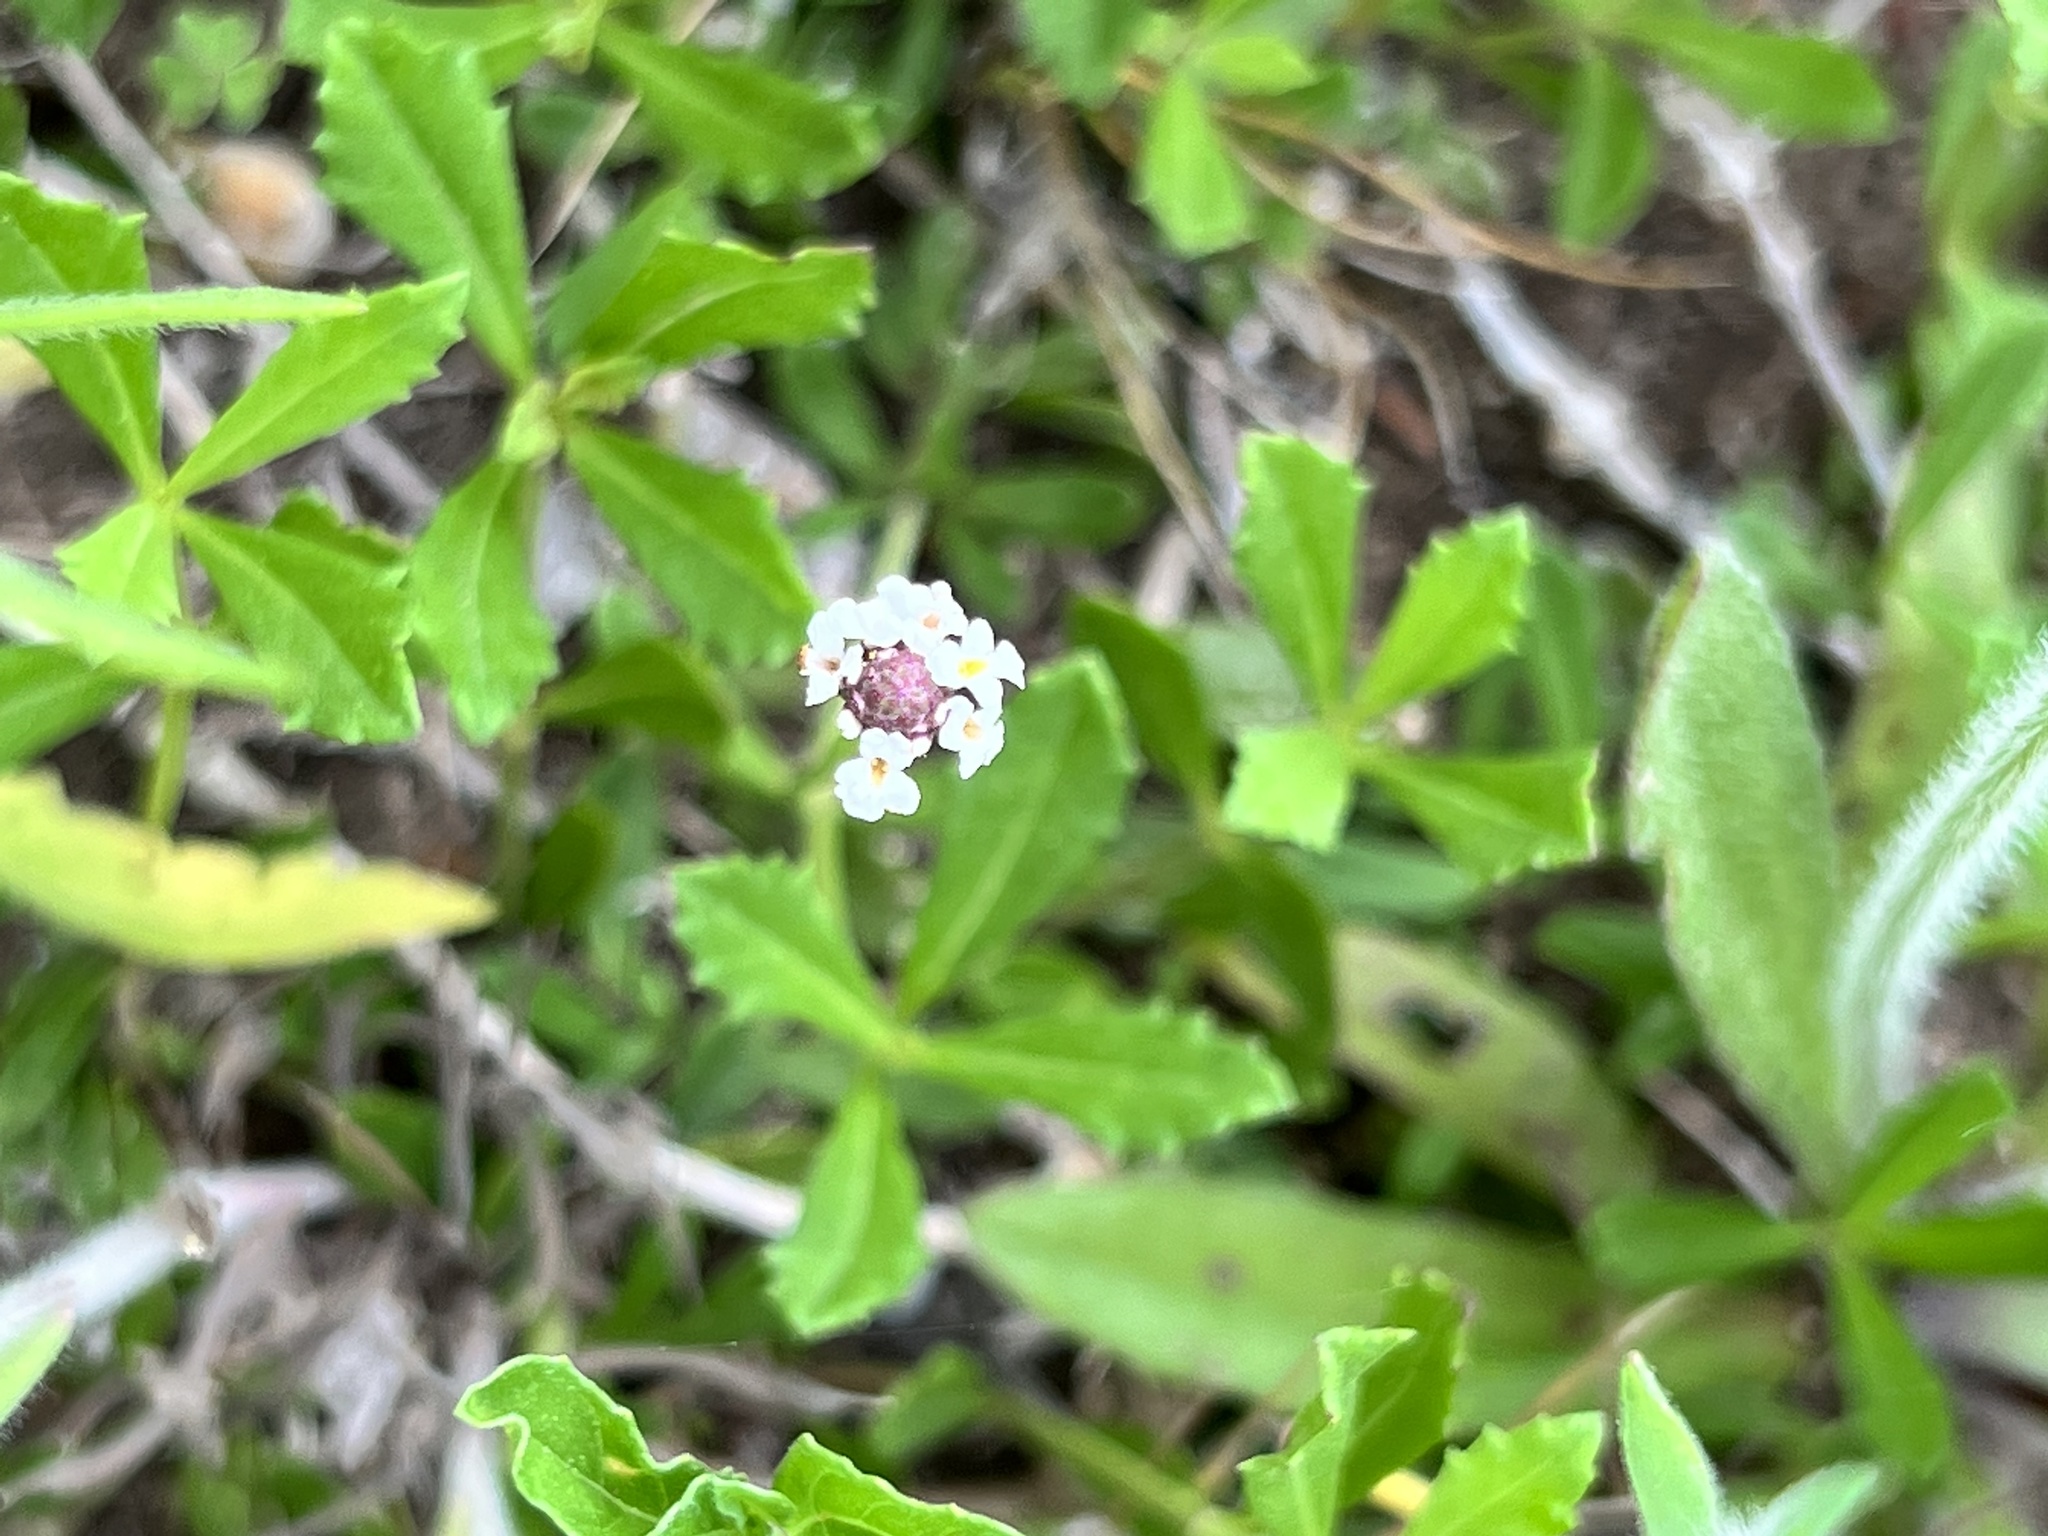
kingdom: Plantae
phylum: Tracheophyta
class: Magnoliopsida
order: Lamiales
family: Verbenaceae
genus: Phyla
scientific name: Phyla nodiflora
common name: Frogfruit
